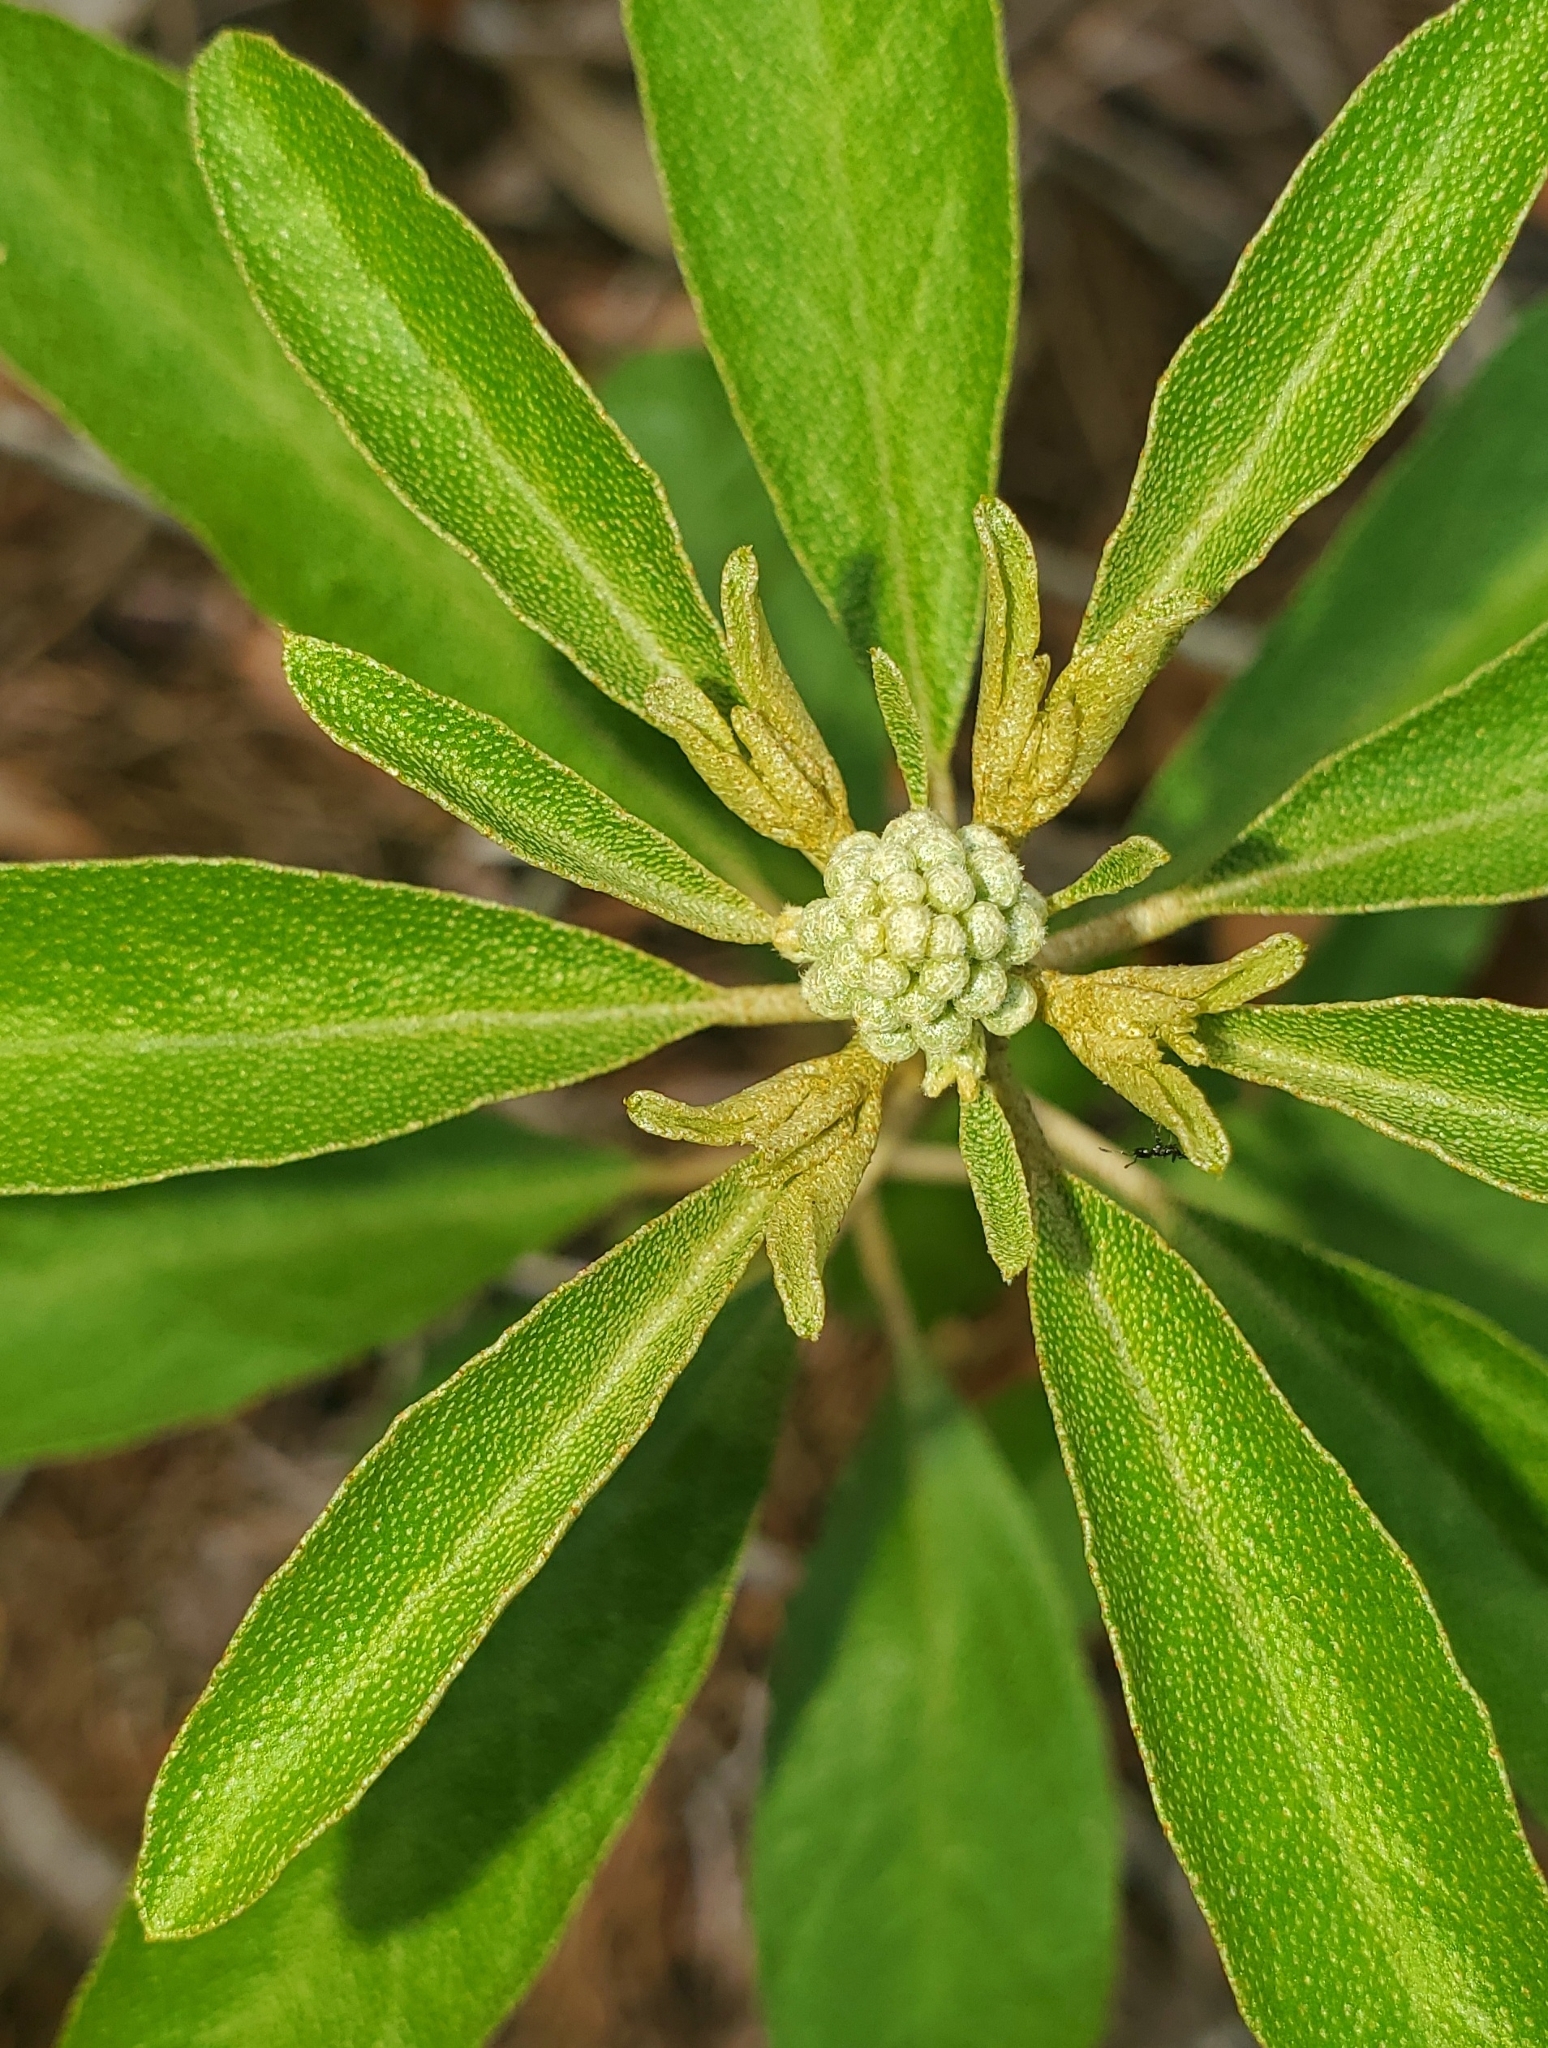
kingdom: Plantae
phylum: Tracheophyta
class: Magnoliopsida
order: Malpighiales
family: Euphorbiaceae
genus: Croton
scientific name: Croton argyranthemus
